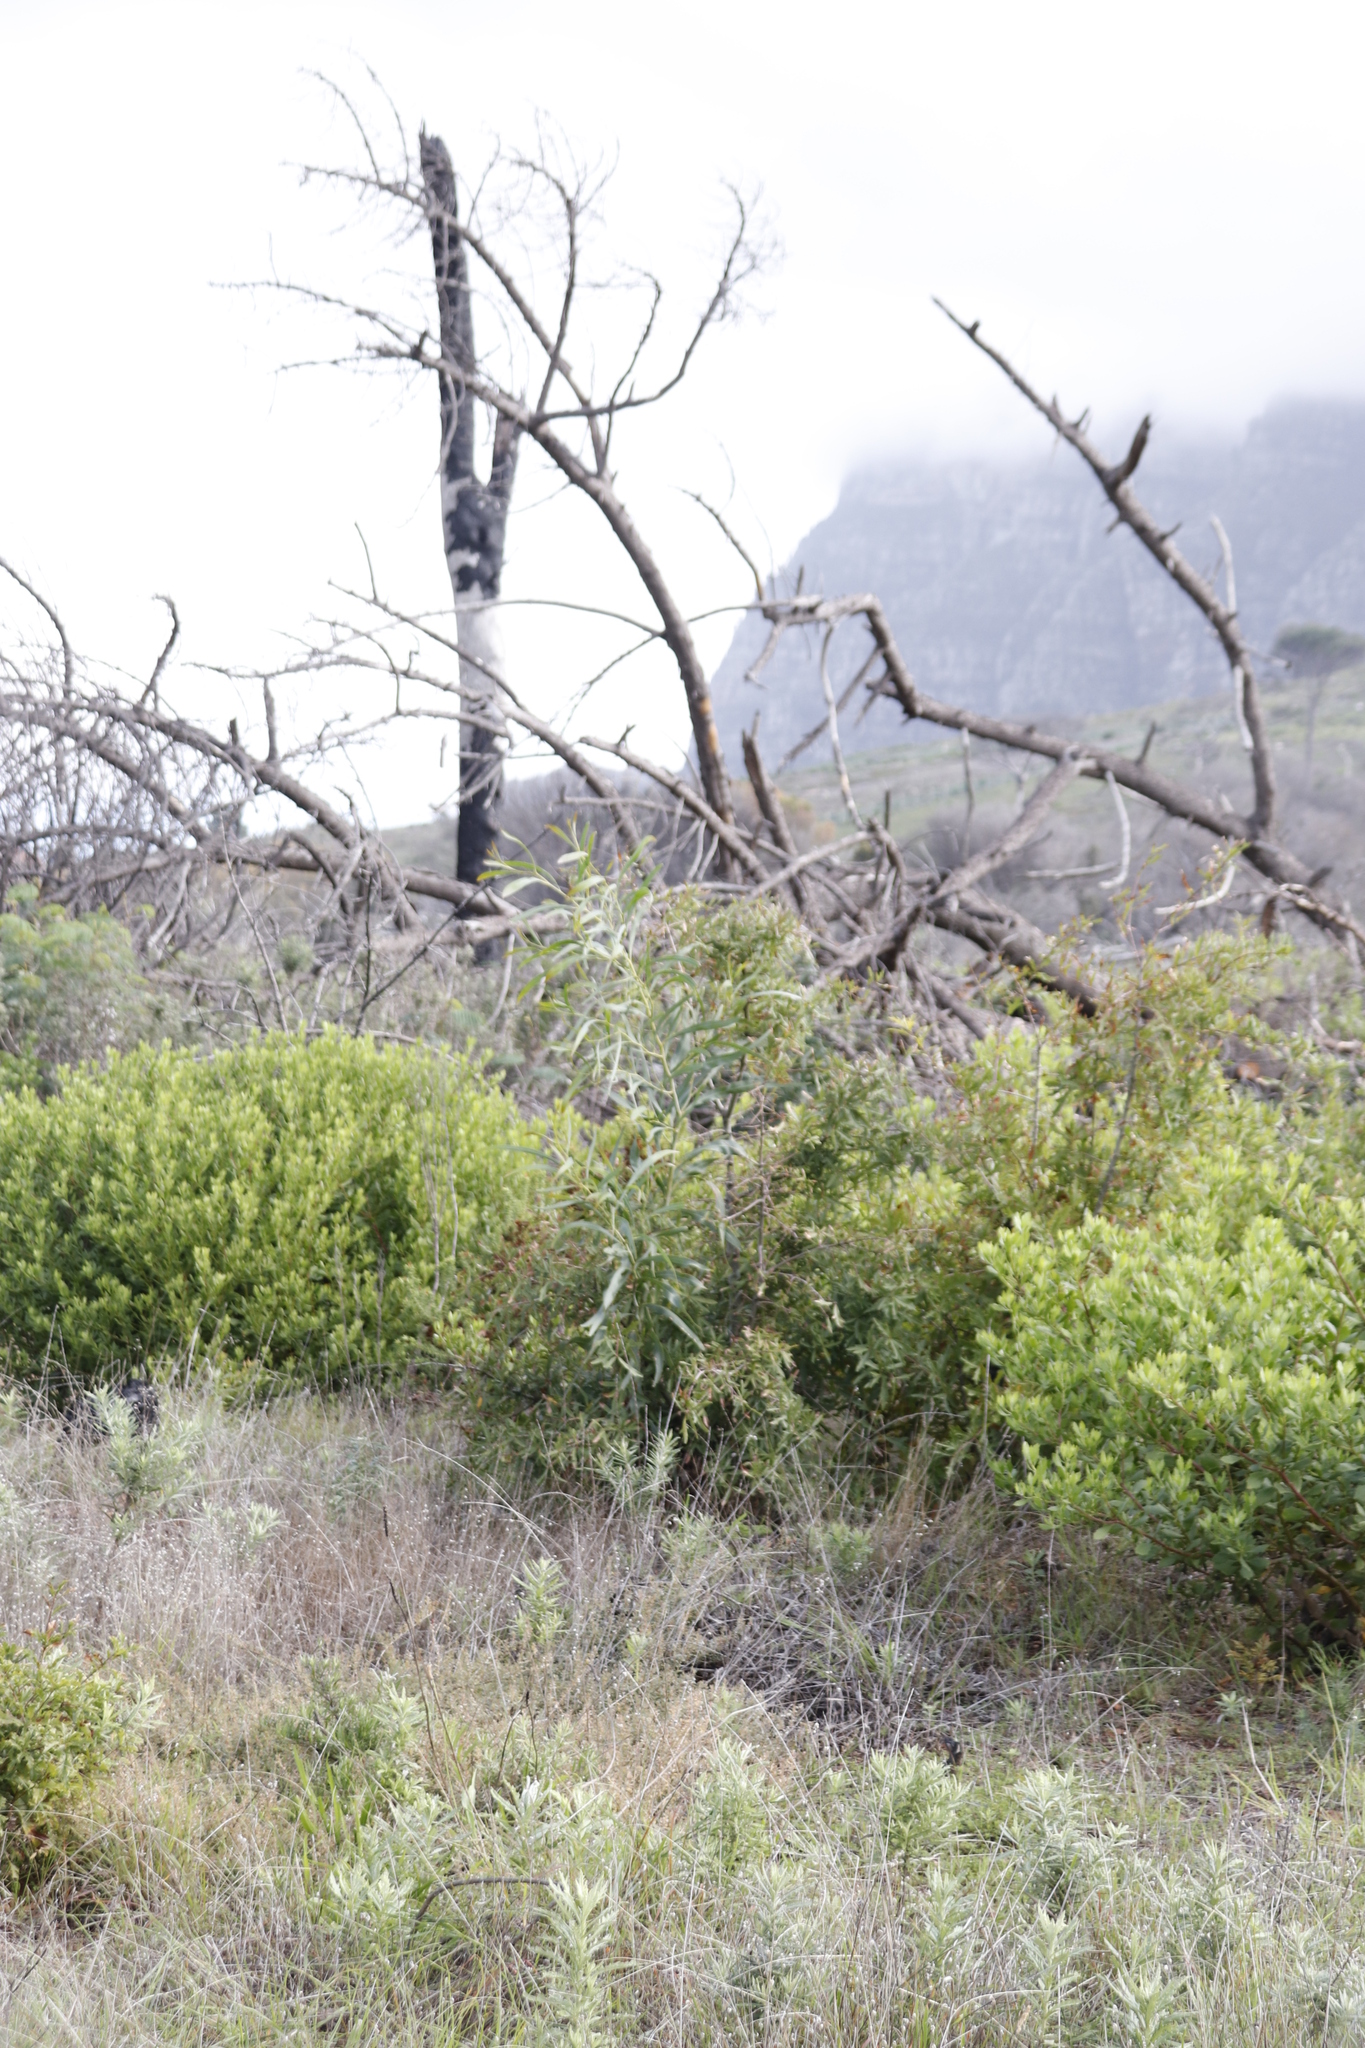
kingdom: Plantae
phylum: Tracheophyta
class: Magnoliopsida
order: Fabales
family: Fabaceae
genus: Acacia
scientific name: Acacia saligna
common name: Orange wattle
